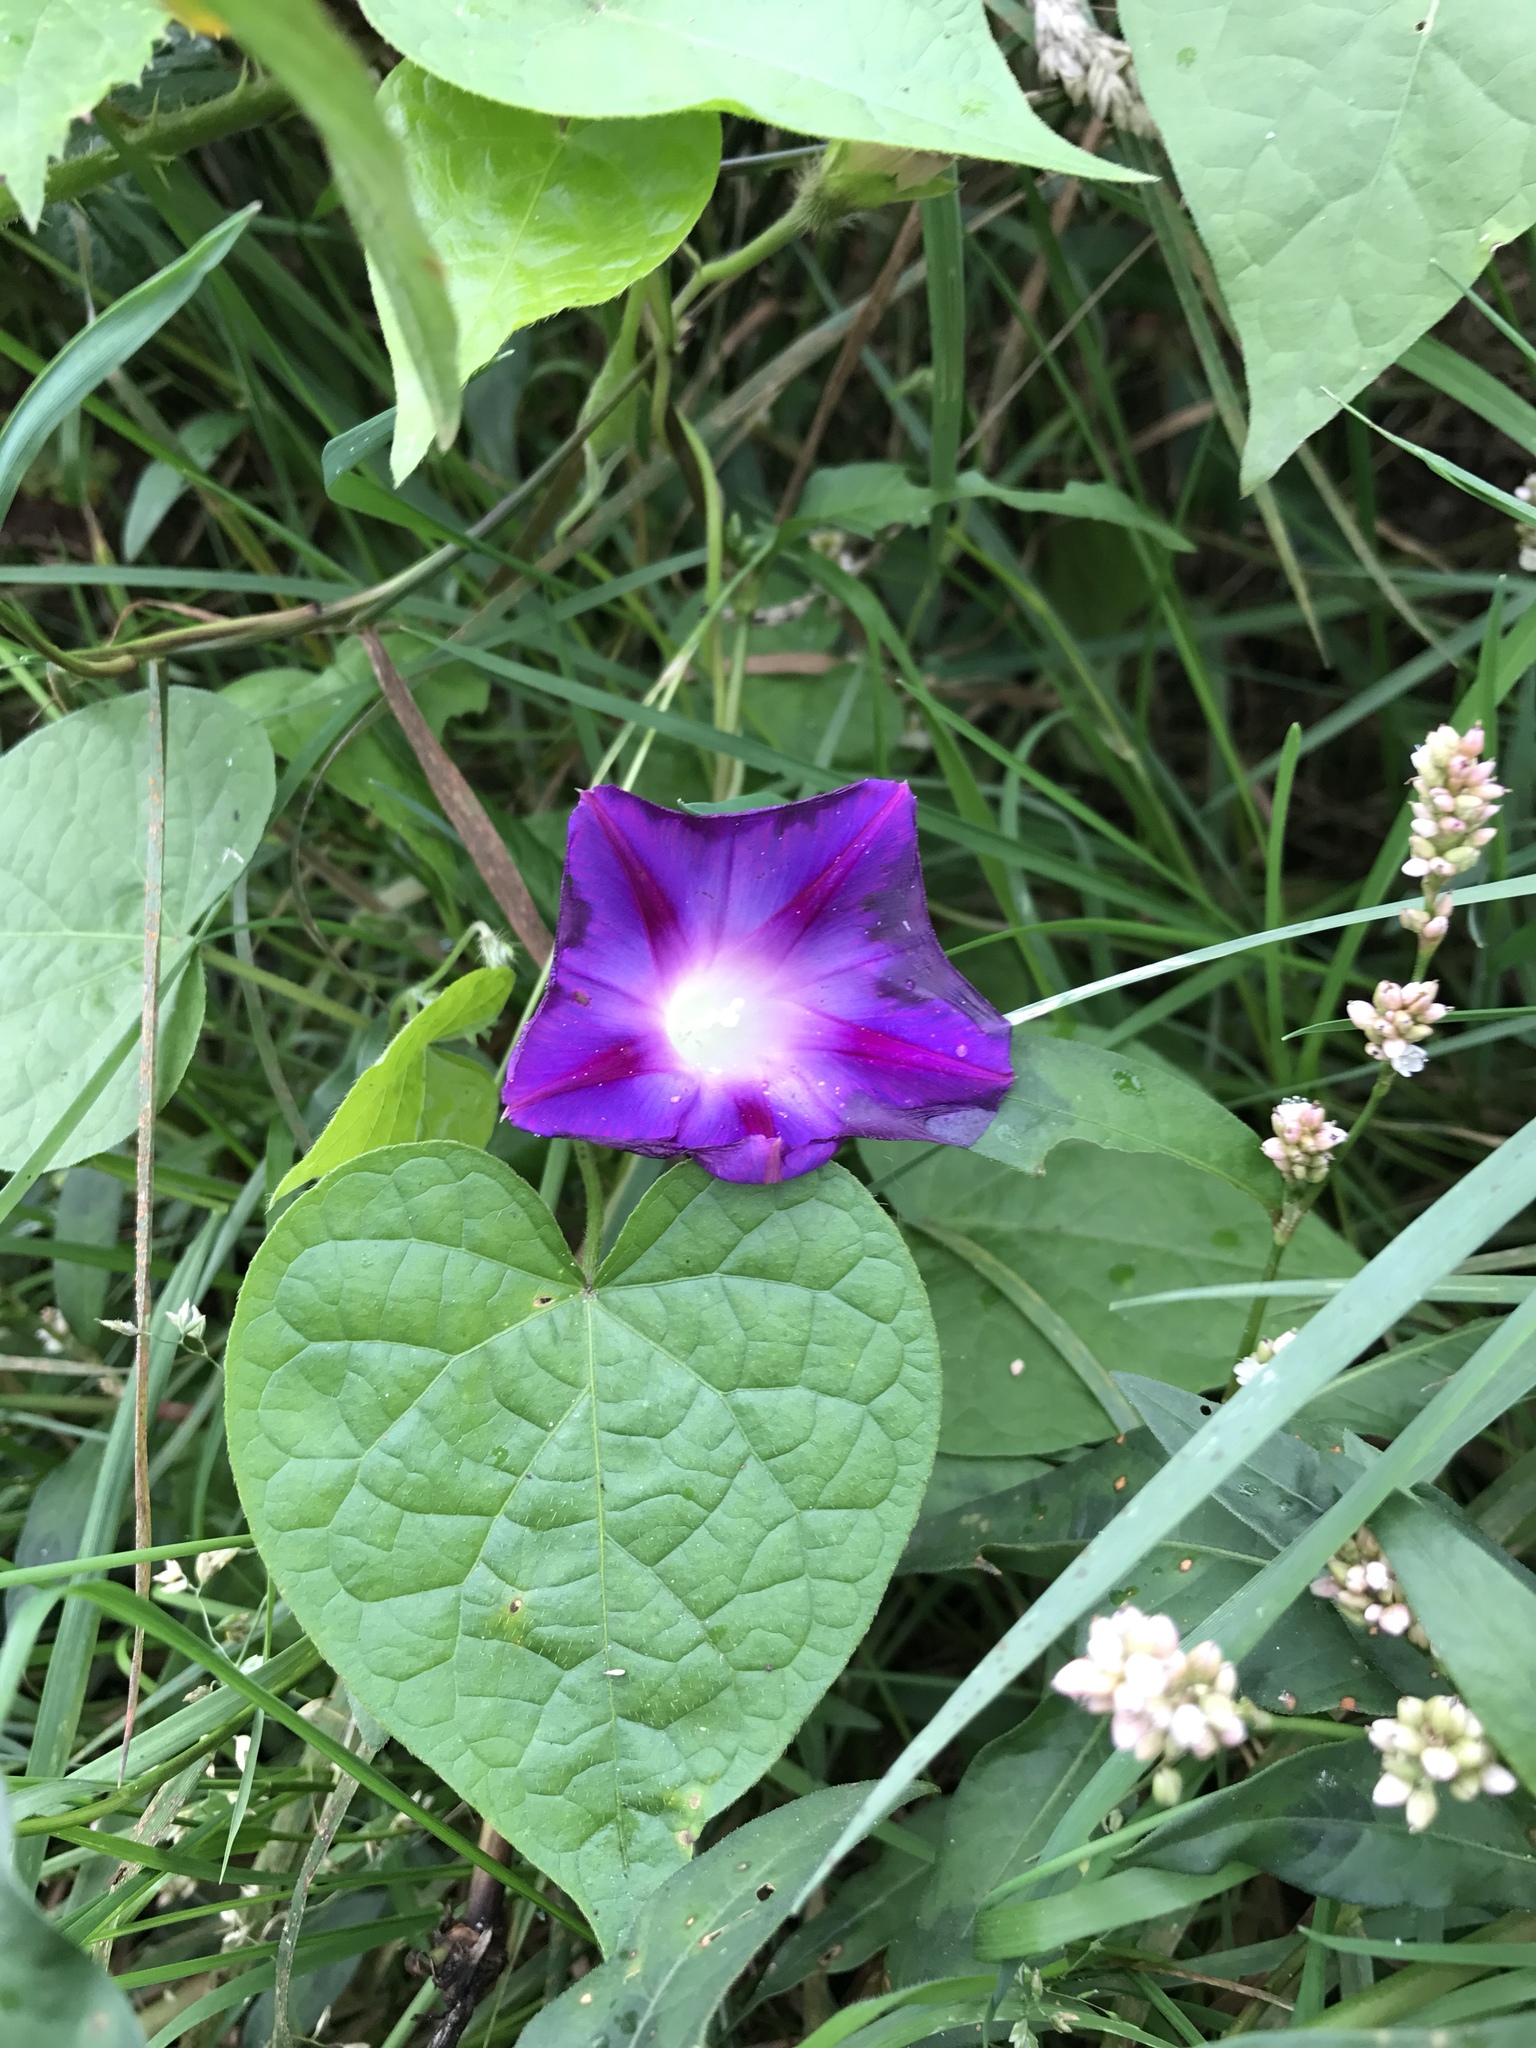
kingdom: Plantae
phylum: Tracheophyta
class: Magnoliopsida
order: Solanales
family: Convolvulaceae
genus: Ipomoea
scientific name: Ipomoea purpurea
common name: Common morning-glory
